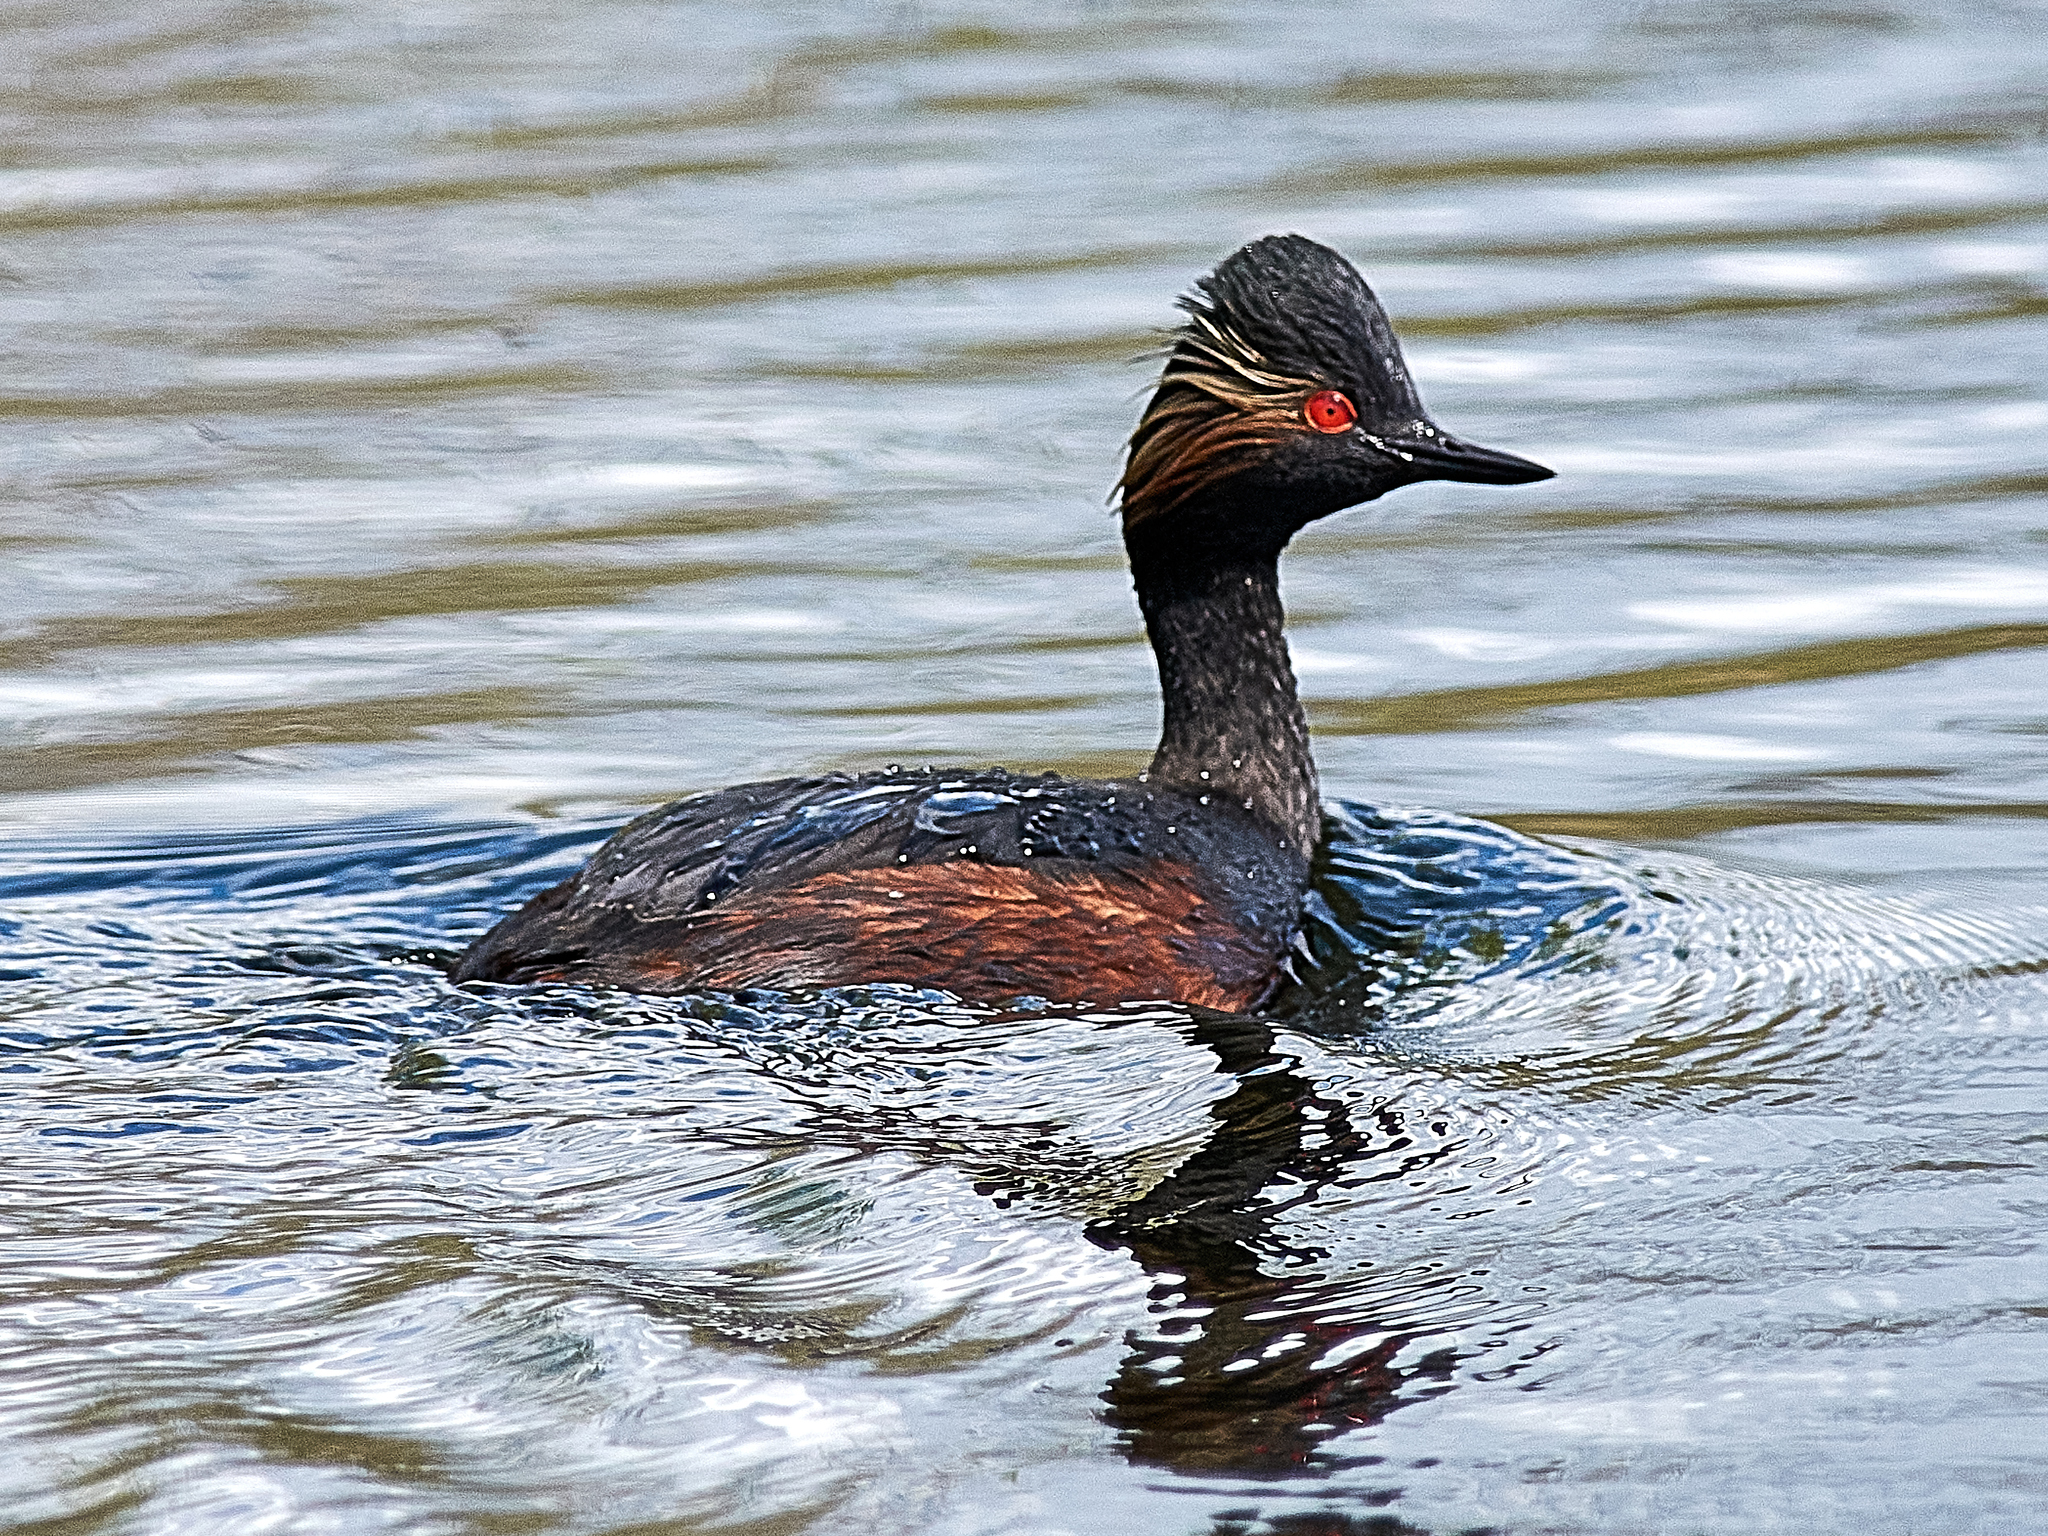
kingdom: Animalia
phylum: Chordata
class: Aves
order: Podicipediformes
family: Podicipedidae
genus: Podiceps
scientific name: Podiceps nigricollis
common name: Black-necked grebe
